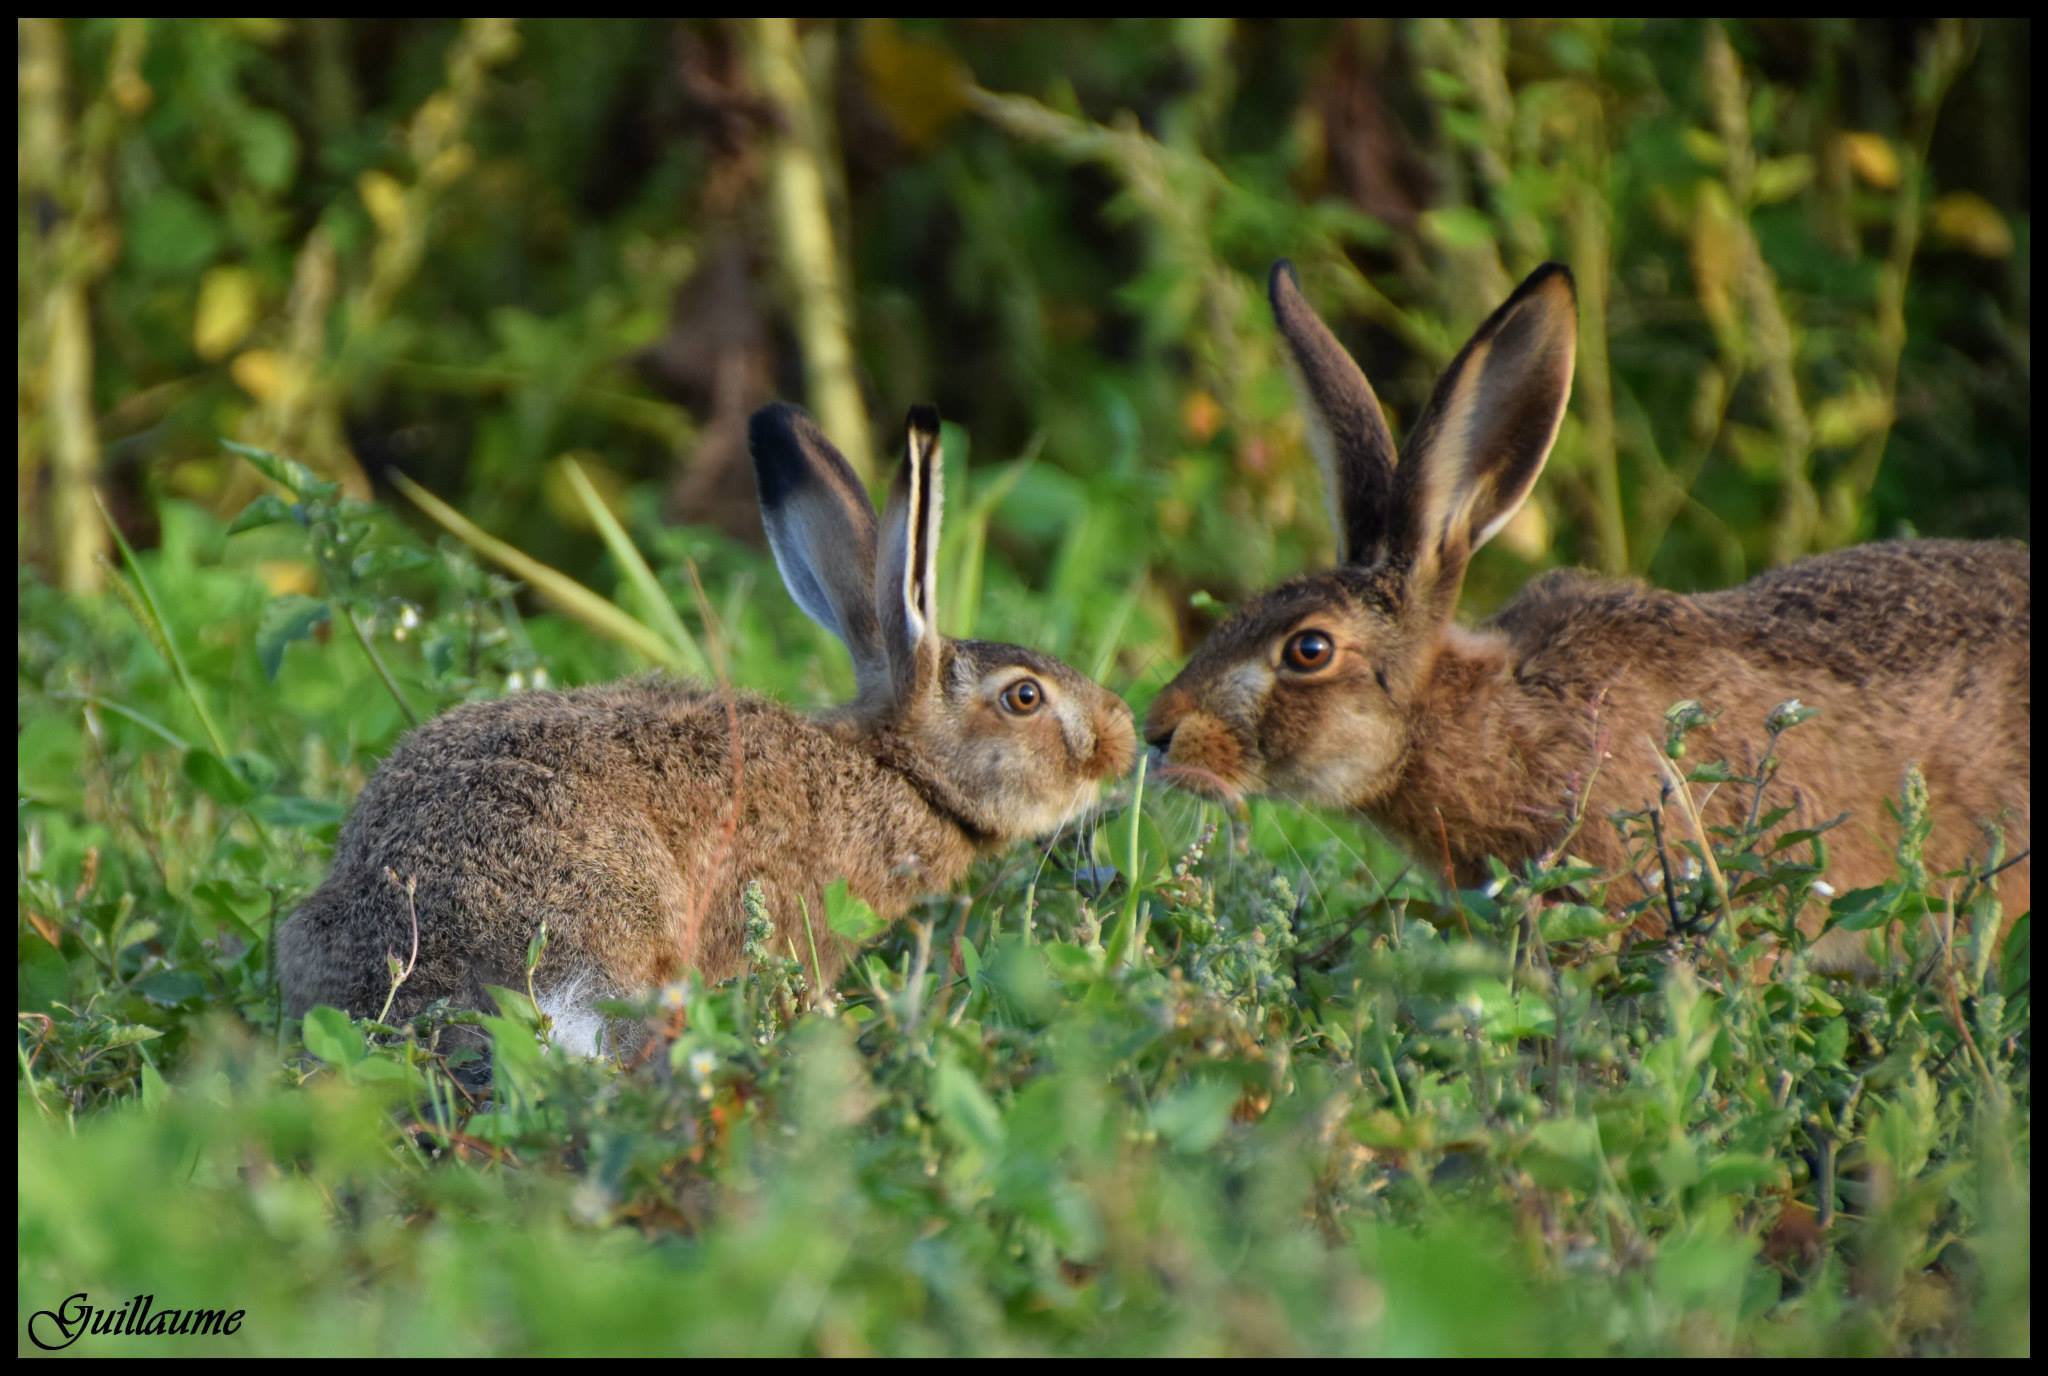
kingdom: Animalia
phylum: Chordata
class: Mammalia
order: Lagomorpha
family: Leporidae
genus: Lepus
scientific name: Lepus europaeus
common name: European hare
